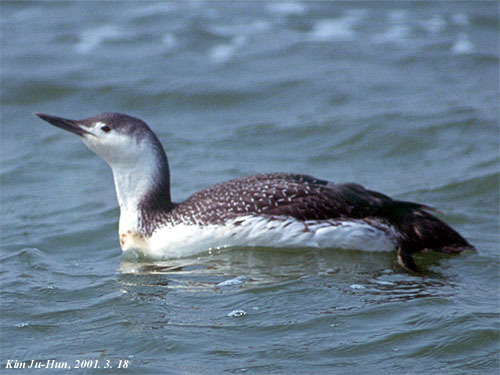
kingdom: Animalia
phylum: Chordata
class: Aves
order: Gaviiformes
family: Gaviidae
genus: Gavia
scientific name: Gavia stellata
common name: Red-throated loon
